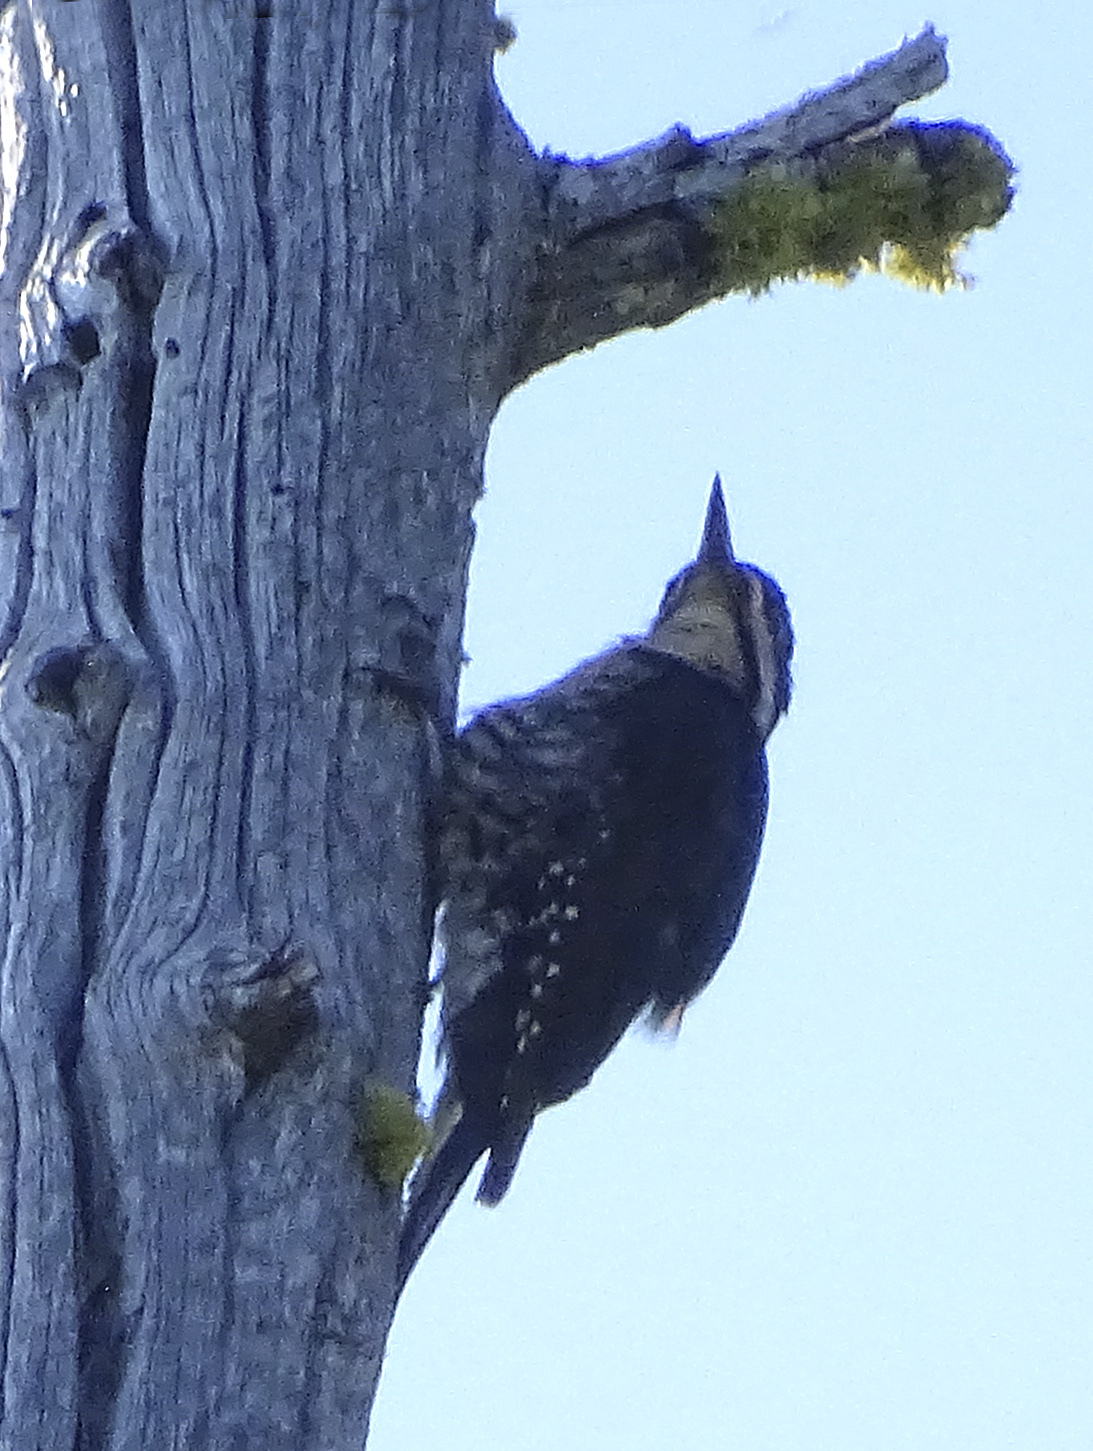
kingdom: Animalia
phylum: Chordata
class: Aves
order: Piciformes
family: Picidae
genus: Picoides
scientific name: Picoides arcticus
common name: Black-backed woodpecker
